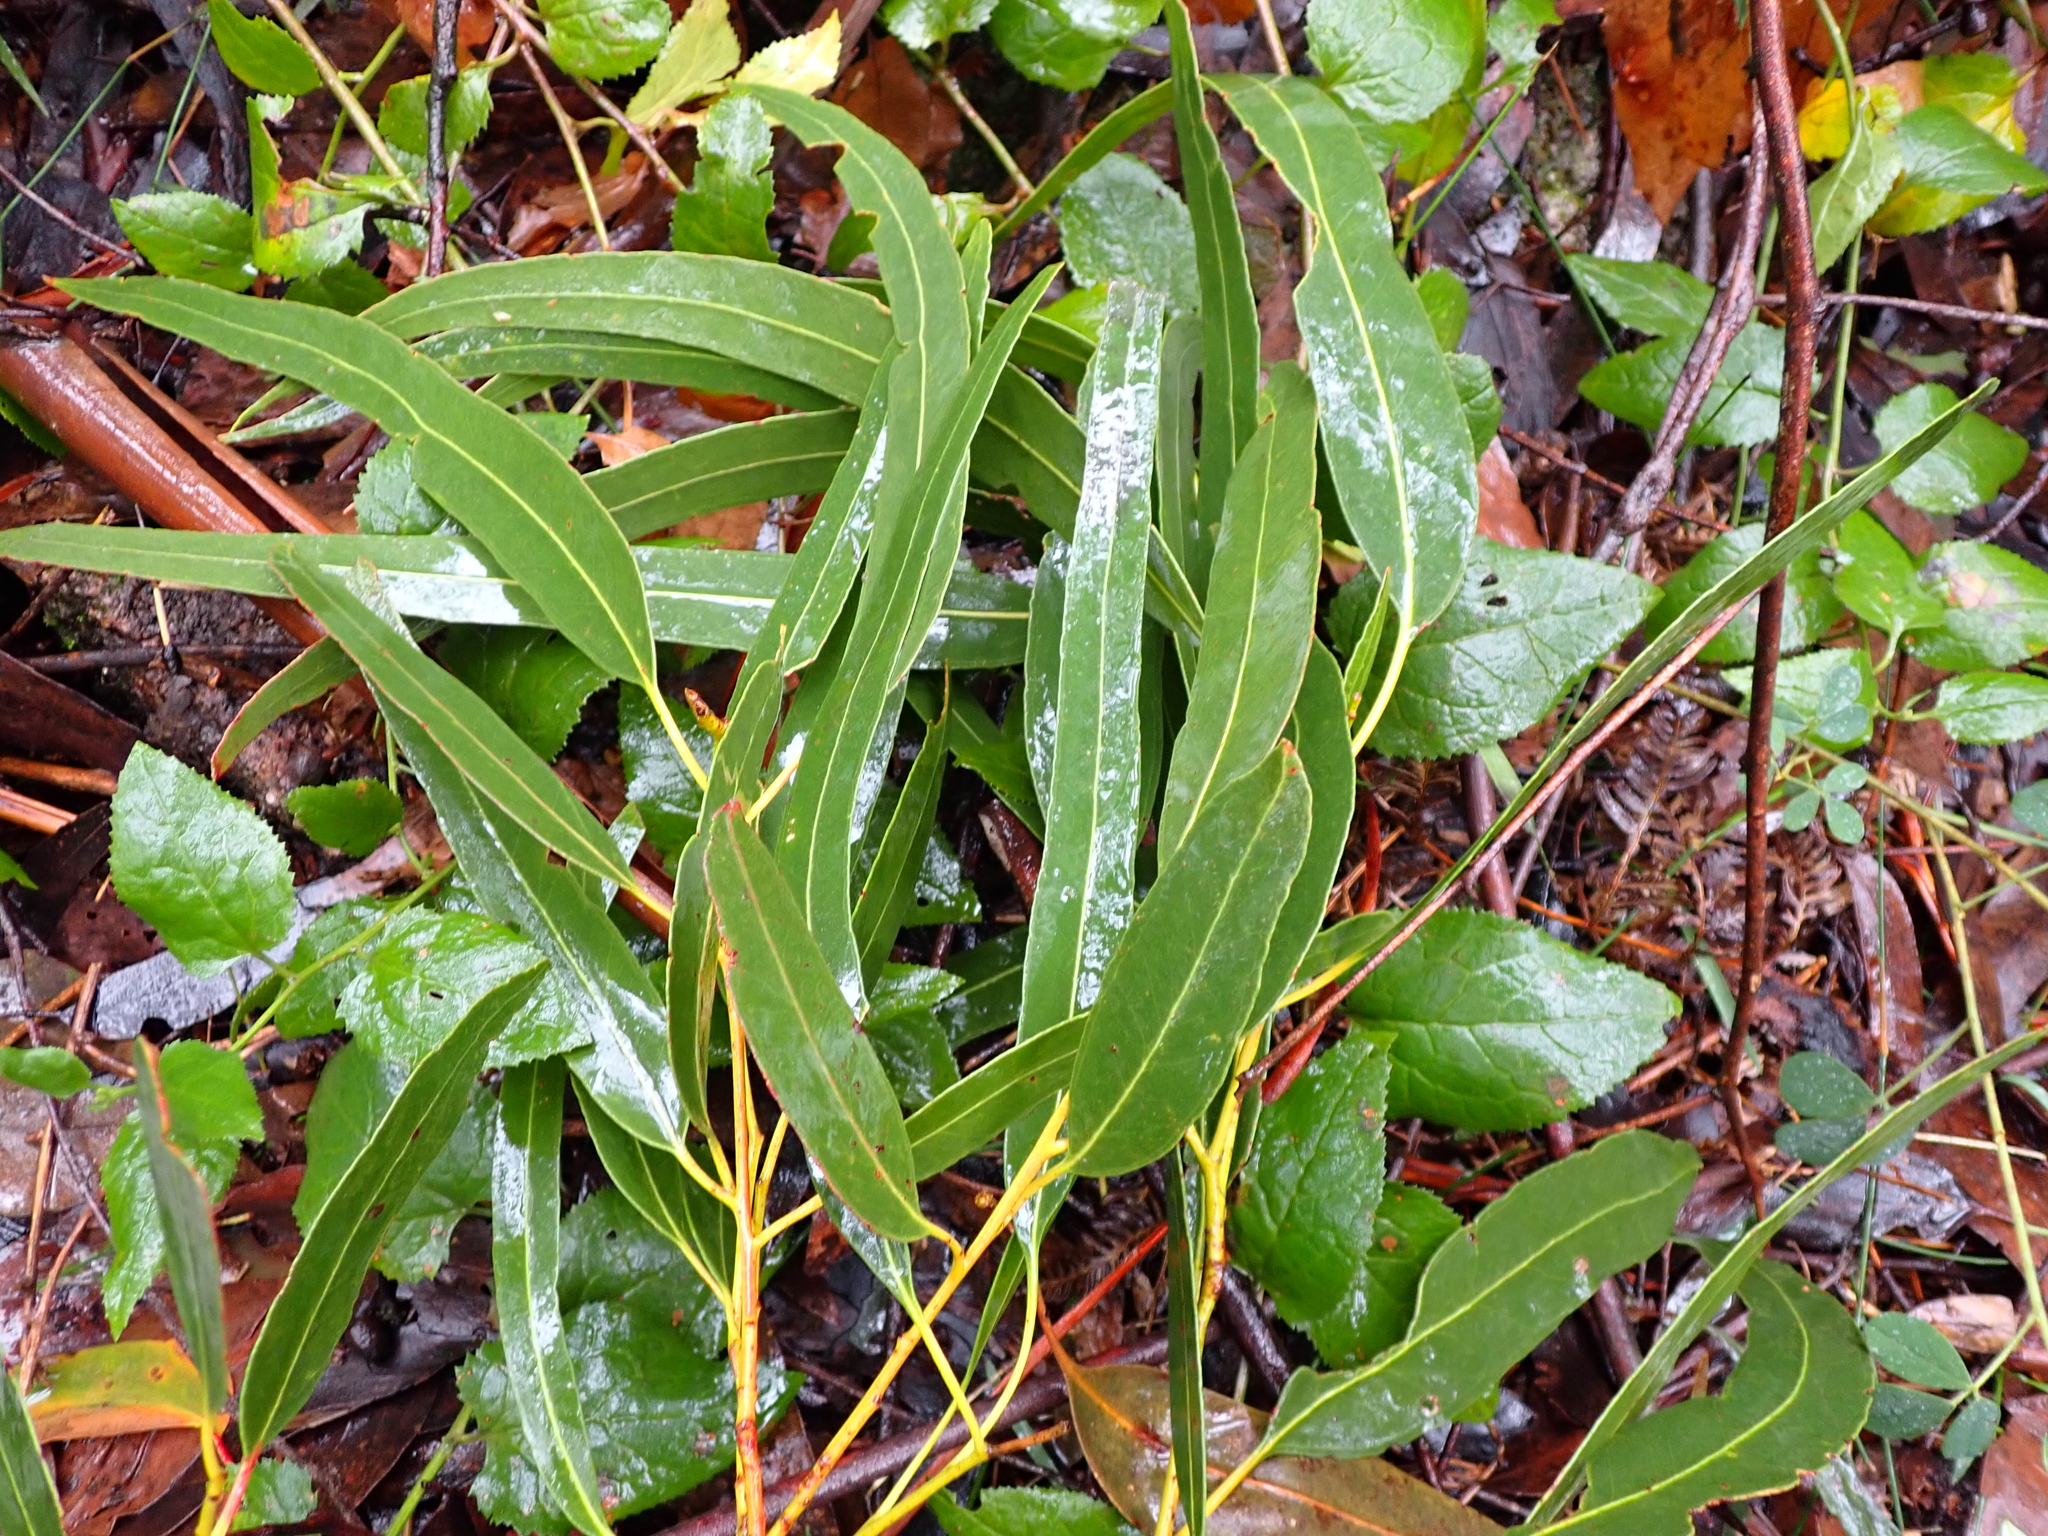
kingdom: Plantae
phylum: Tracheophyta
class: Magnoliopsida
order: Myrtales
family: Myrtaceae
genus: Eucalyptus
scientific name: Eucalyptus cypellocarpa
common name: Mountain grey gum
